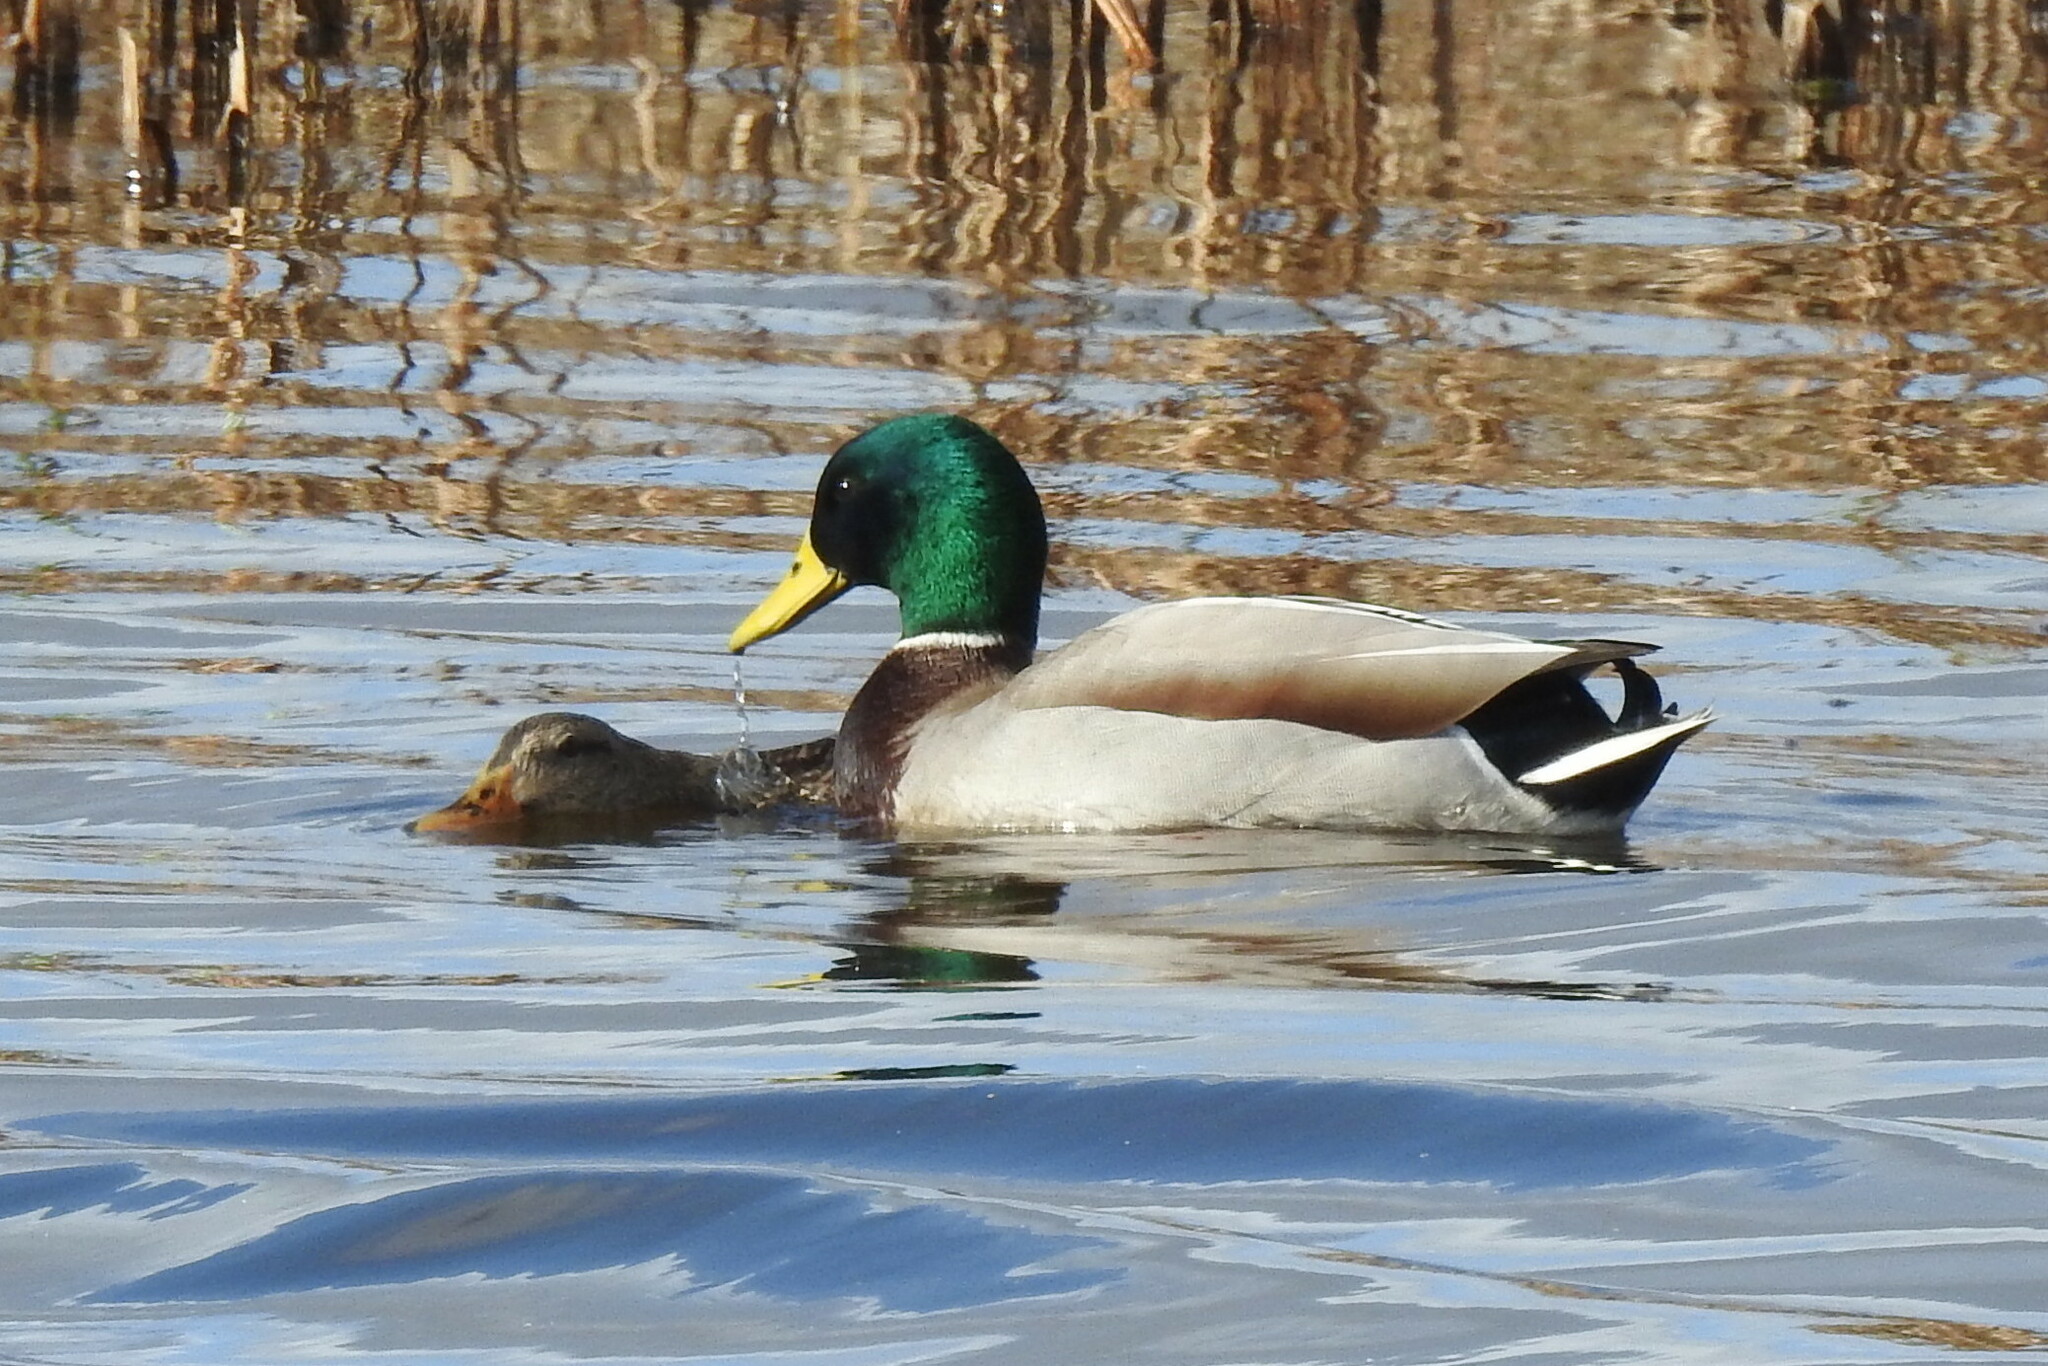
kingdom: Animalia
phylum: Chordata
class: Aves
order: Anseriformes
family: Anatidae
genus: Anas
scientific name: Anas platyrhynchos
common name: Mallard
